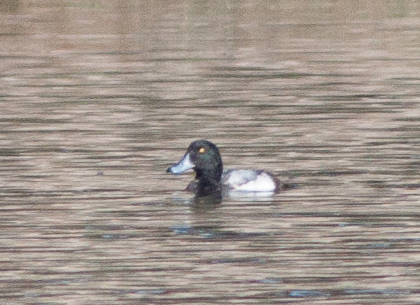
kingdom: Animalia
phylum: Chordata
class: Aves
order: Anseriformes
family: Anatidae
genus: Aythya
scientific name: Aythya marila
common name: Greater scaup
